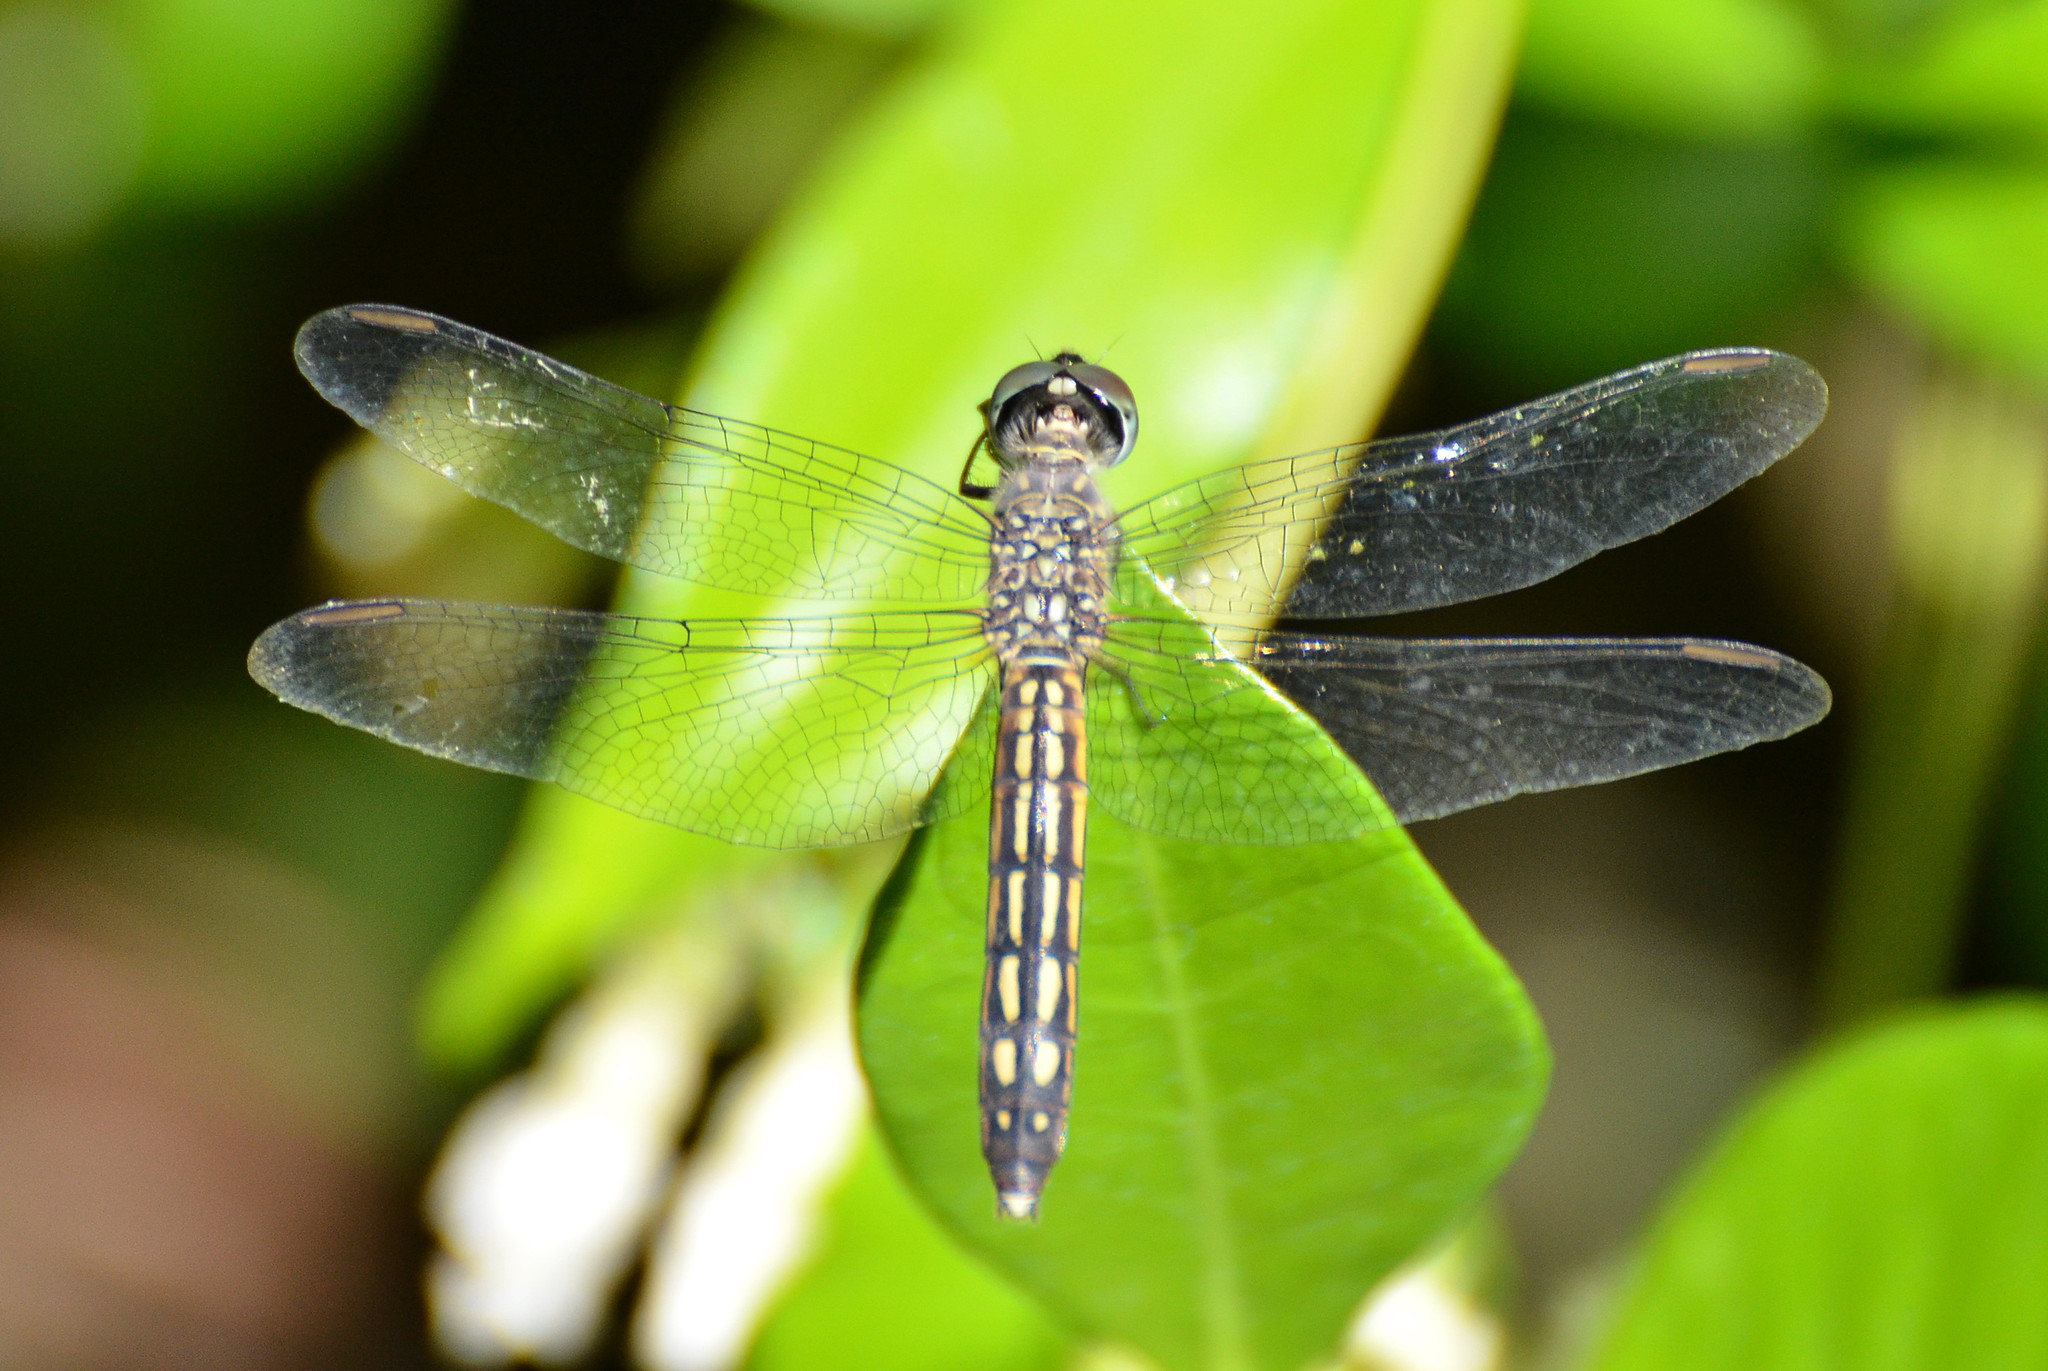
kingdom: Animalia
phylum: Arthropoda
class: Insecta
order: Odonata
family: Libellulidae
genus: Pachydiplax
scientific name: Pachydiplax longipennis
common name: Blue dasher
